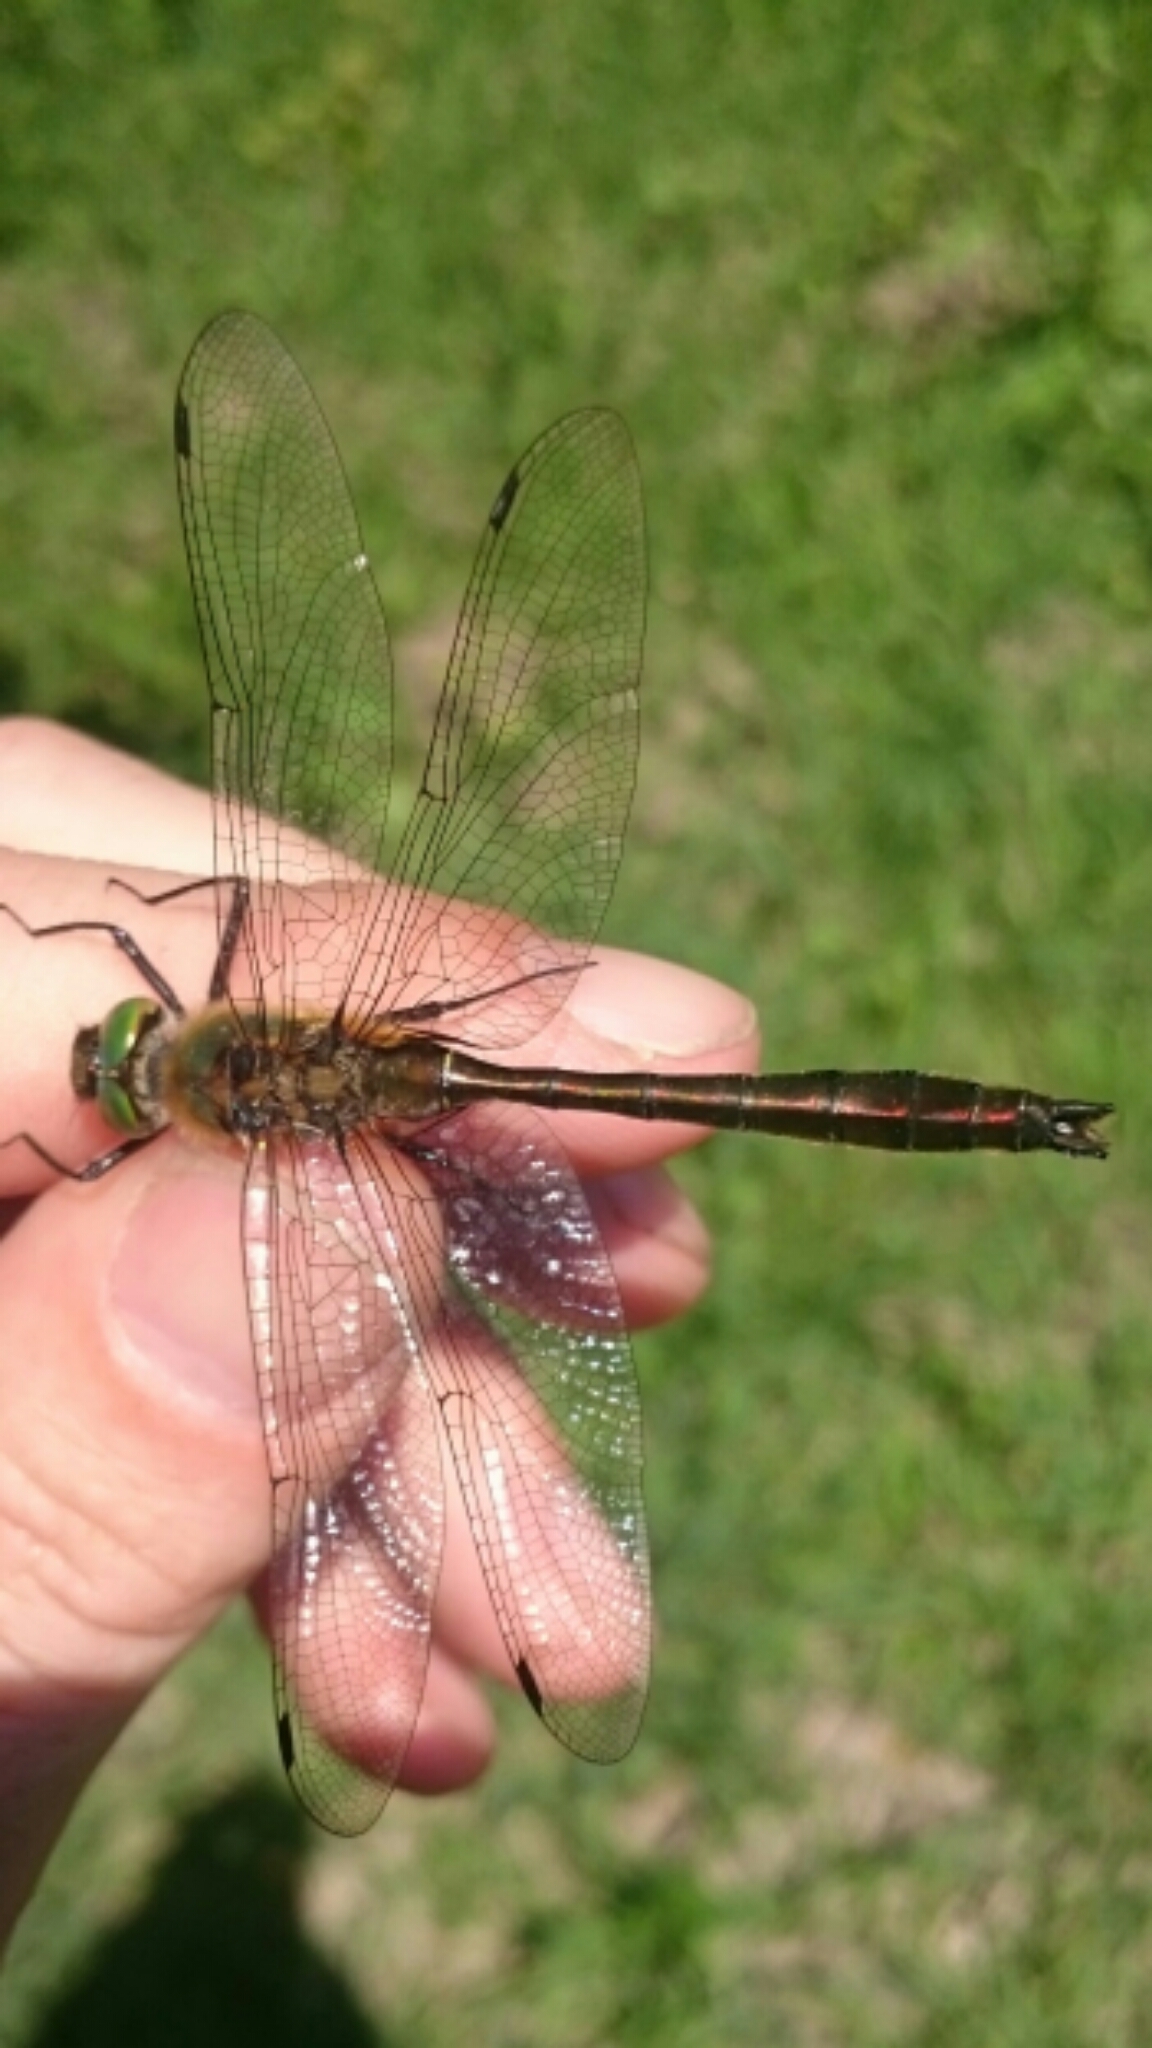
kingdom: Animalia
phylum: Arthropoda
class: Insecta
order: Odonata
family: Corduliidae
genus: Cordulia
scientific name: Cordulia aenea
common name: Downy emerald
